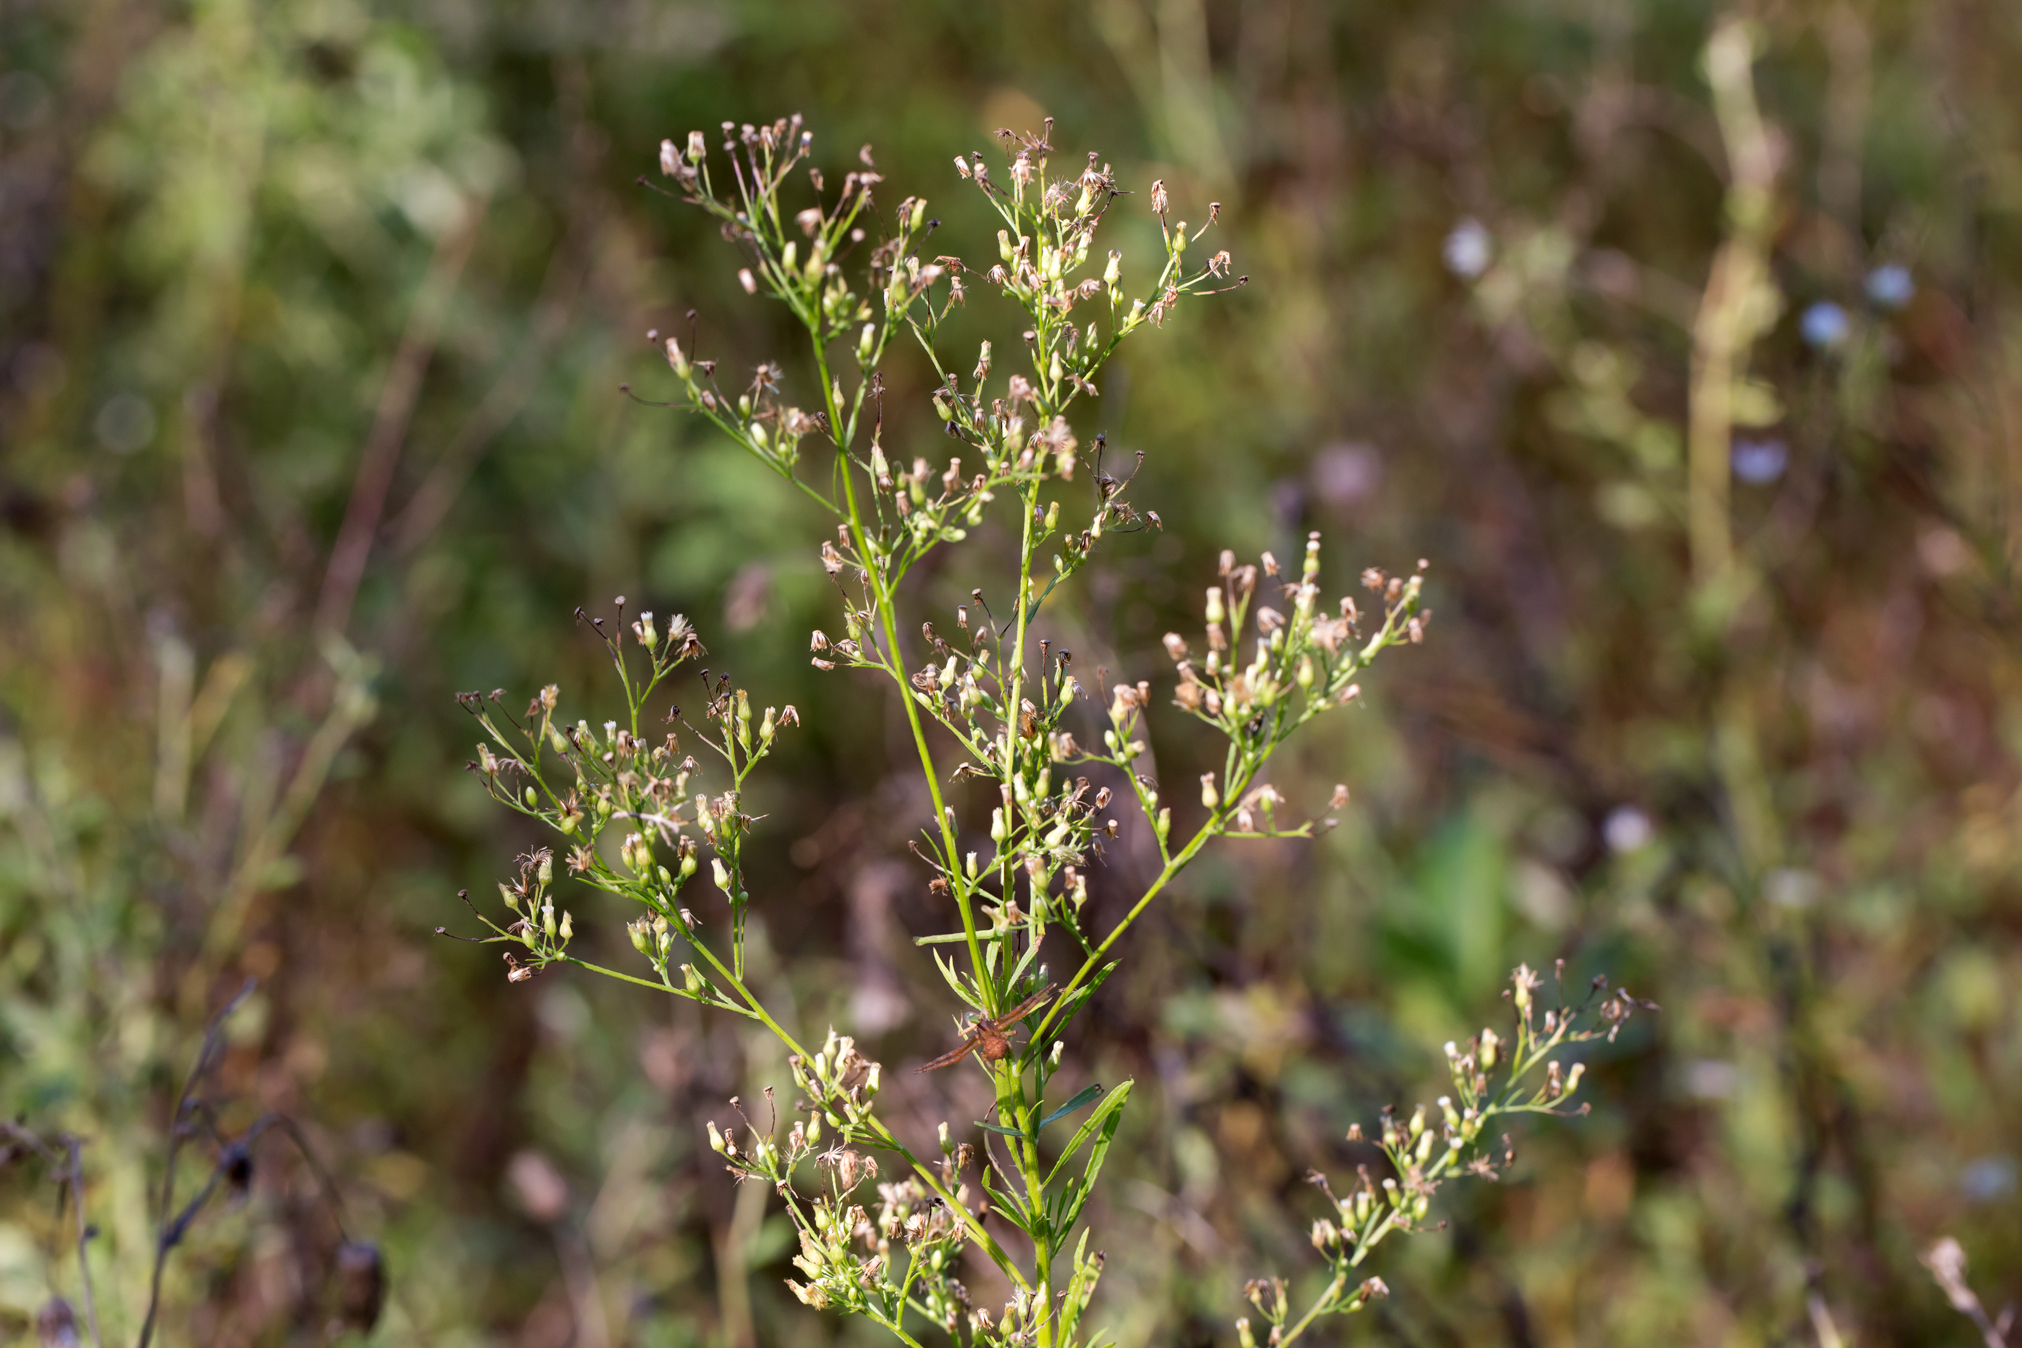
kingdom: Plantae
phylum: Tracheophyta
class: Magnoliopsida
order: Asterales
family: Asteraceae
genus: Erigeron
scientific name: Erigeron canadensis
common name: Canadian fleabane
